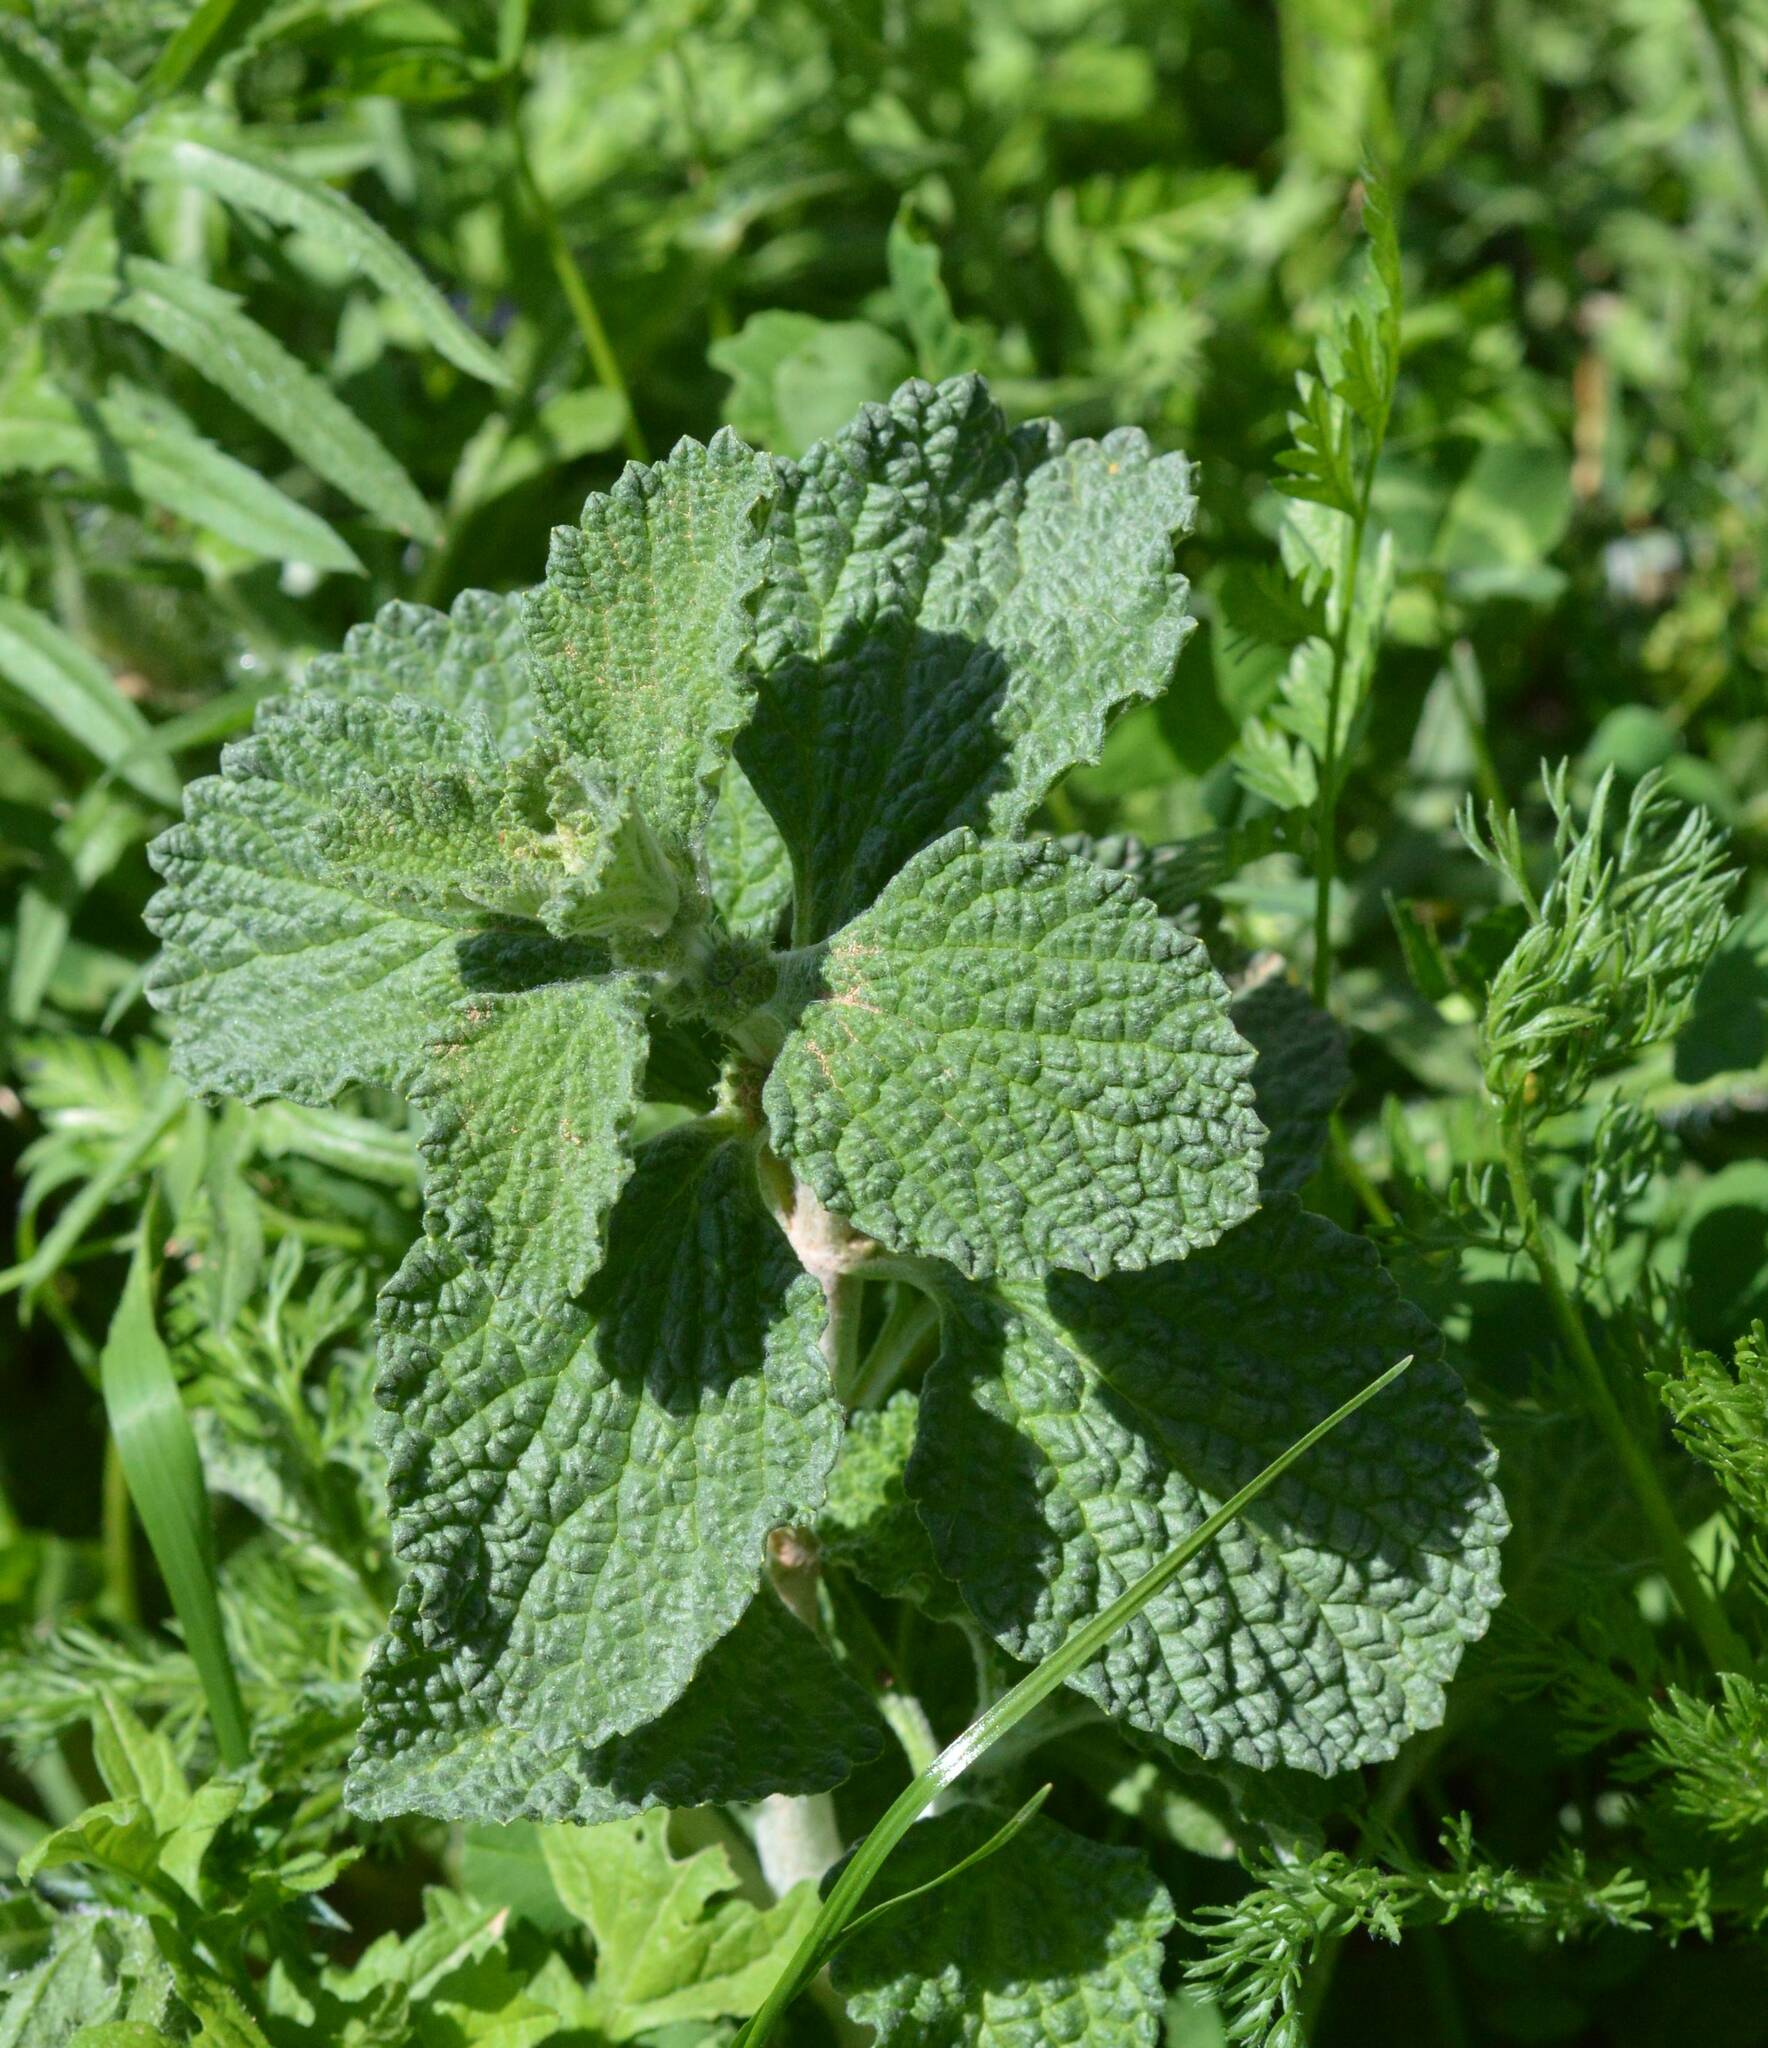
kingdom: Plantae
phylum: Tracheophyta
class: Magnoliopsida
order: Lamiales
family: Lamiaceae
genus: Marrubium
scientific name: Marrubium vulgare
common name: Horehound
